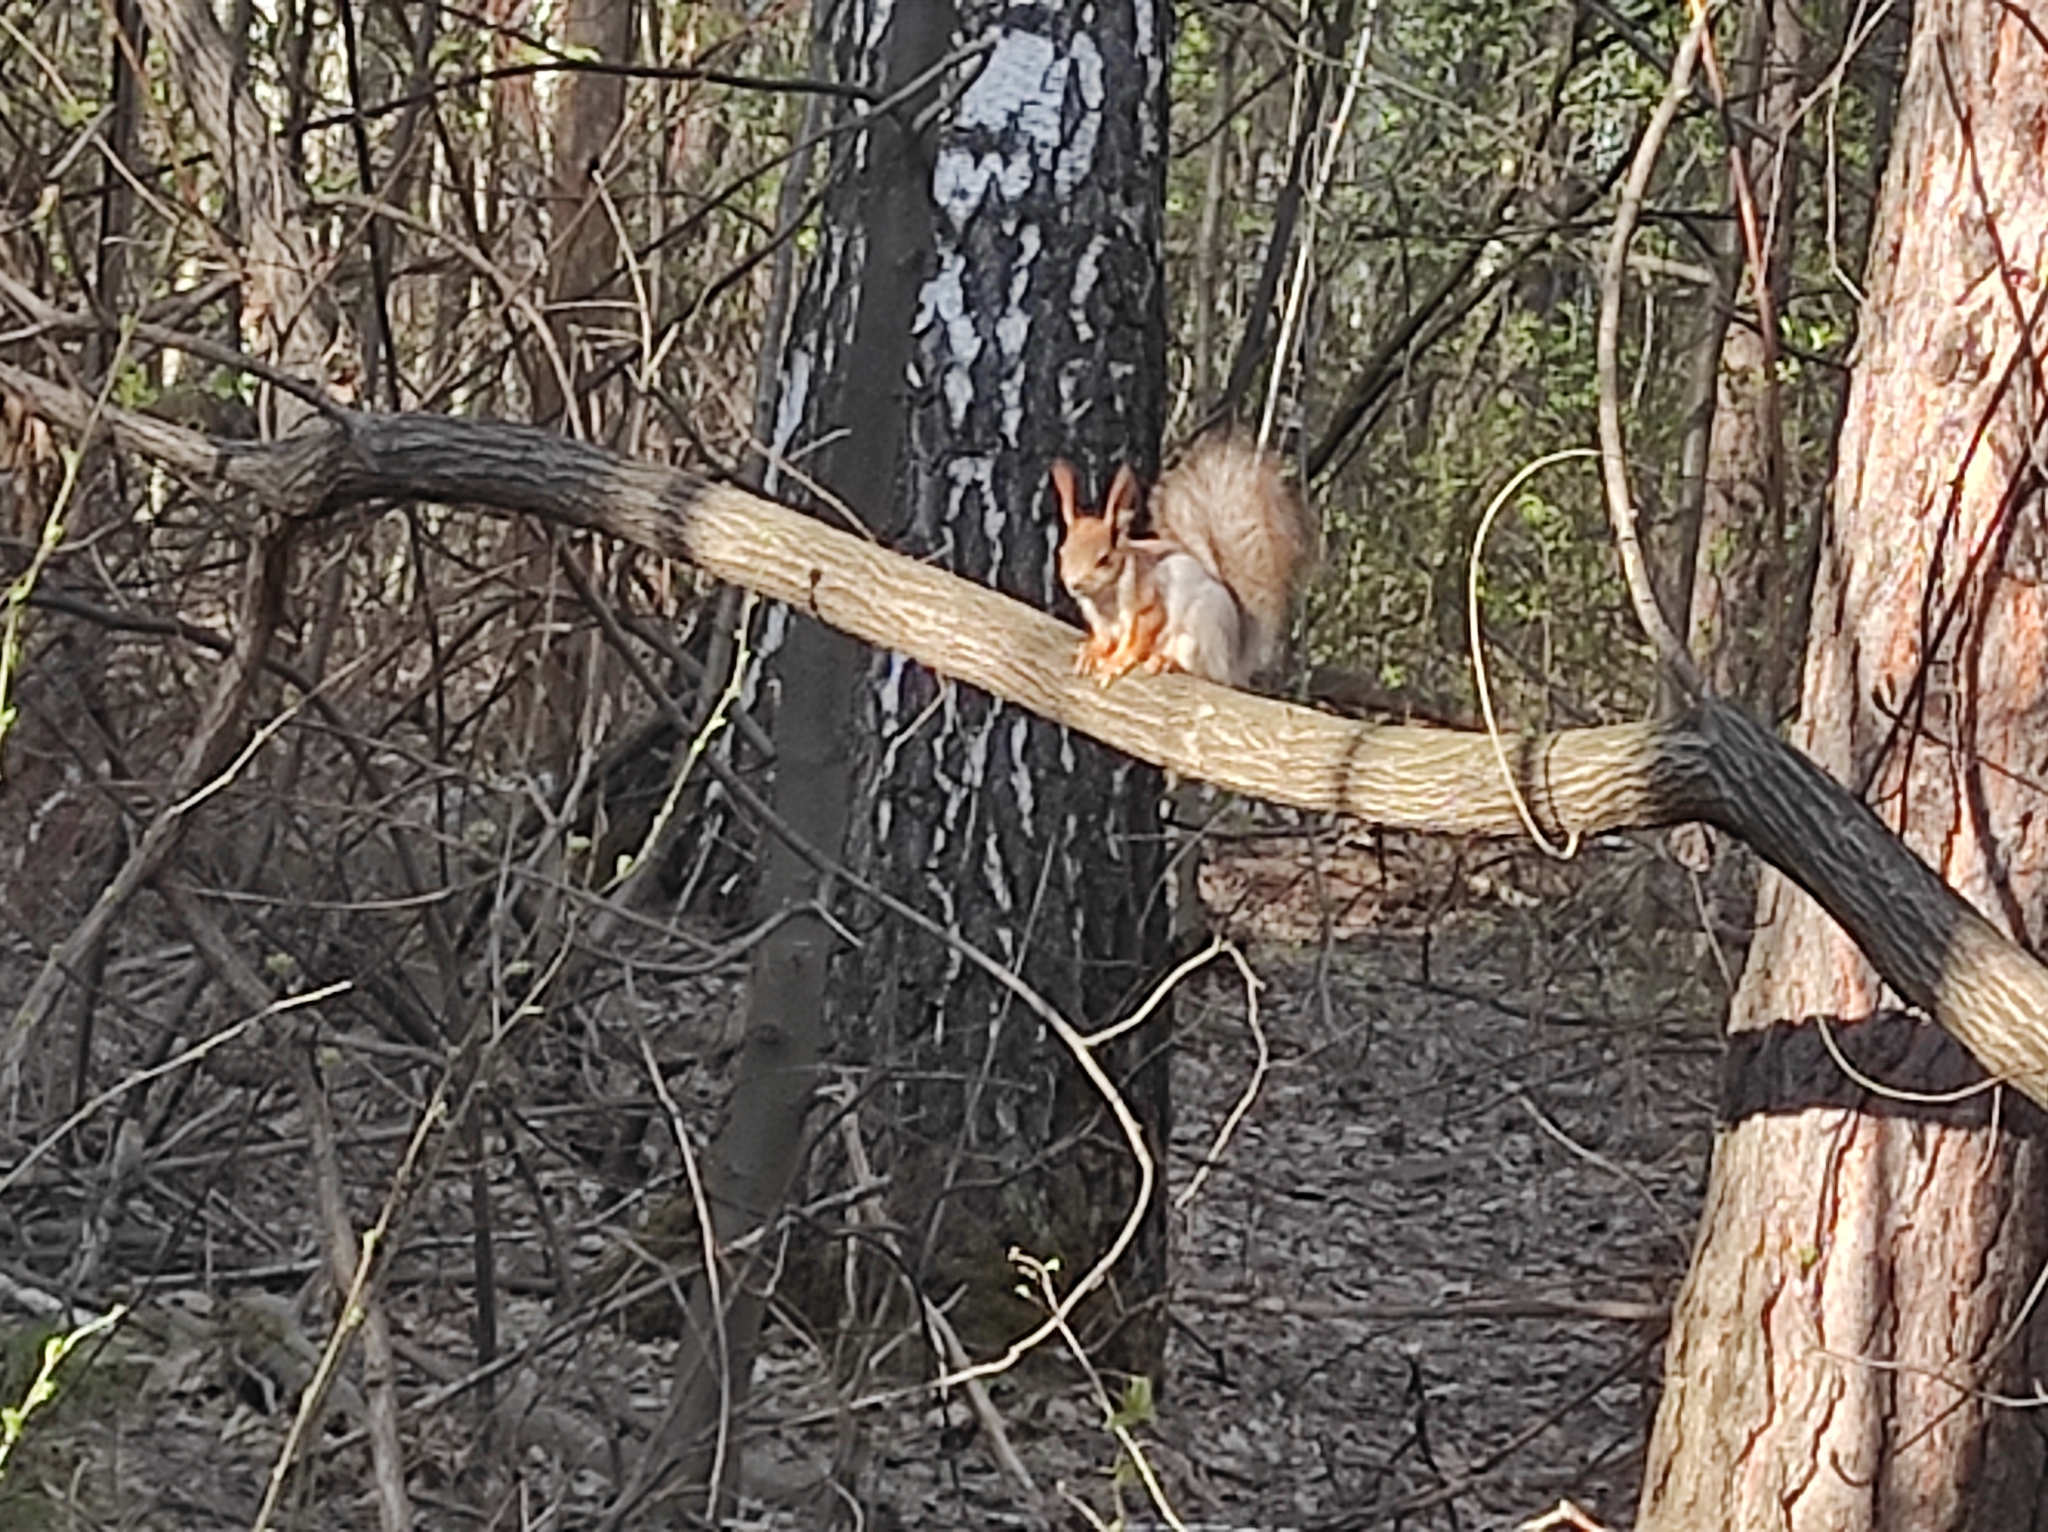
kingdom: Animalia
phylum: Chordata
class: Mammalia
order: Rodentia
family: Sciuridae
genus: Sciurus
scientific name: Sciurus vulgaris
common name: Eurasian red squirrel
